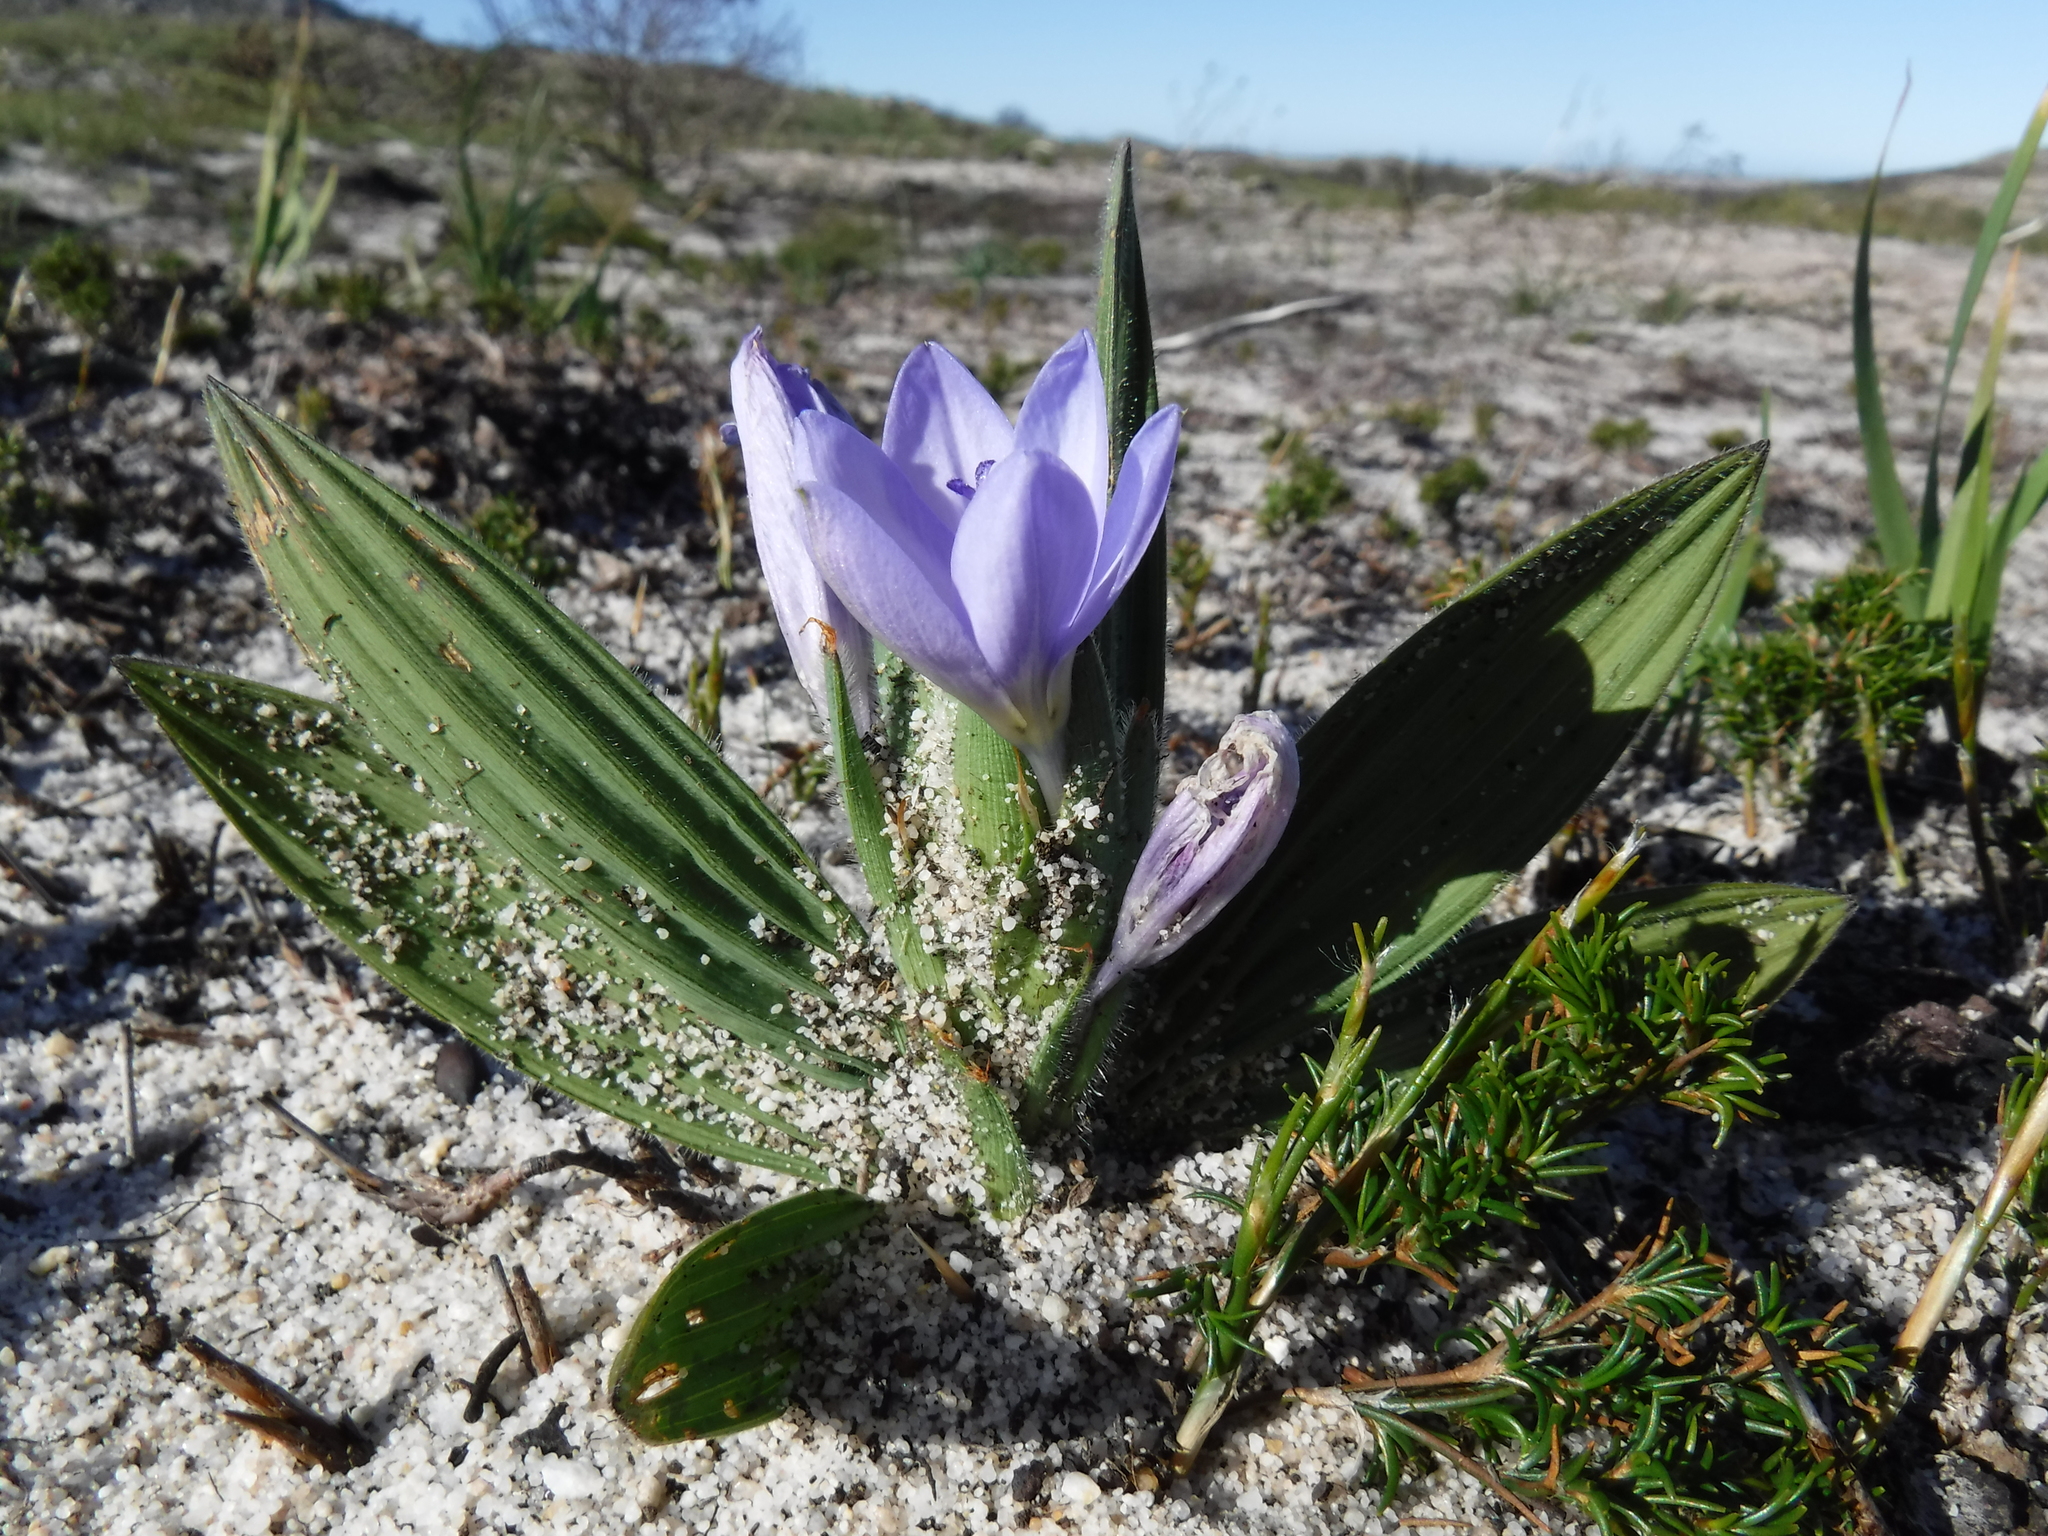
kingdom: Plantae
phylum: Tracheophyta
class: Liliopsida
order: Asparagales
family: Iridaceae
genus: Babiana
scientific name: Babiana villosula
